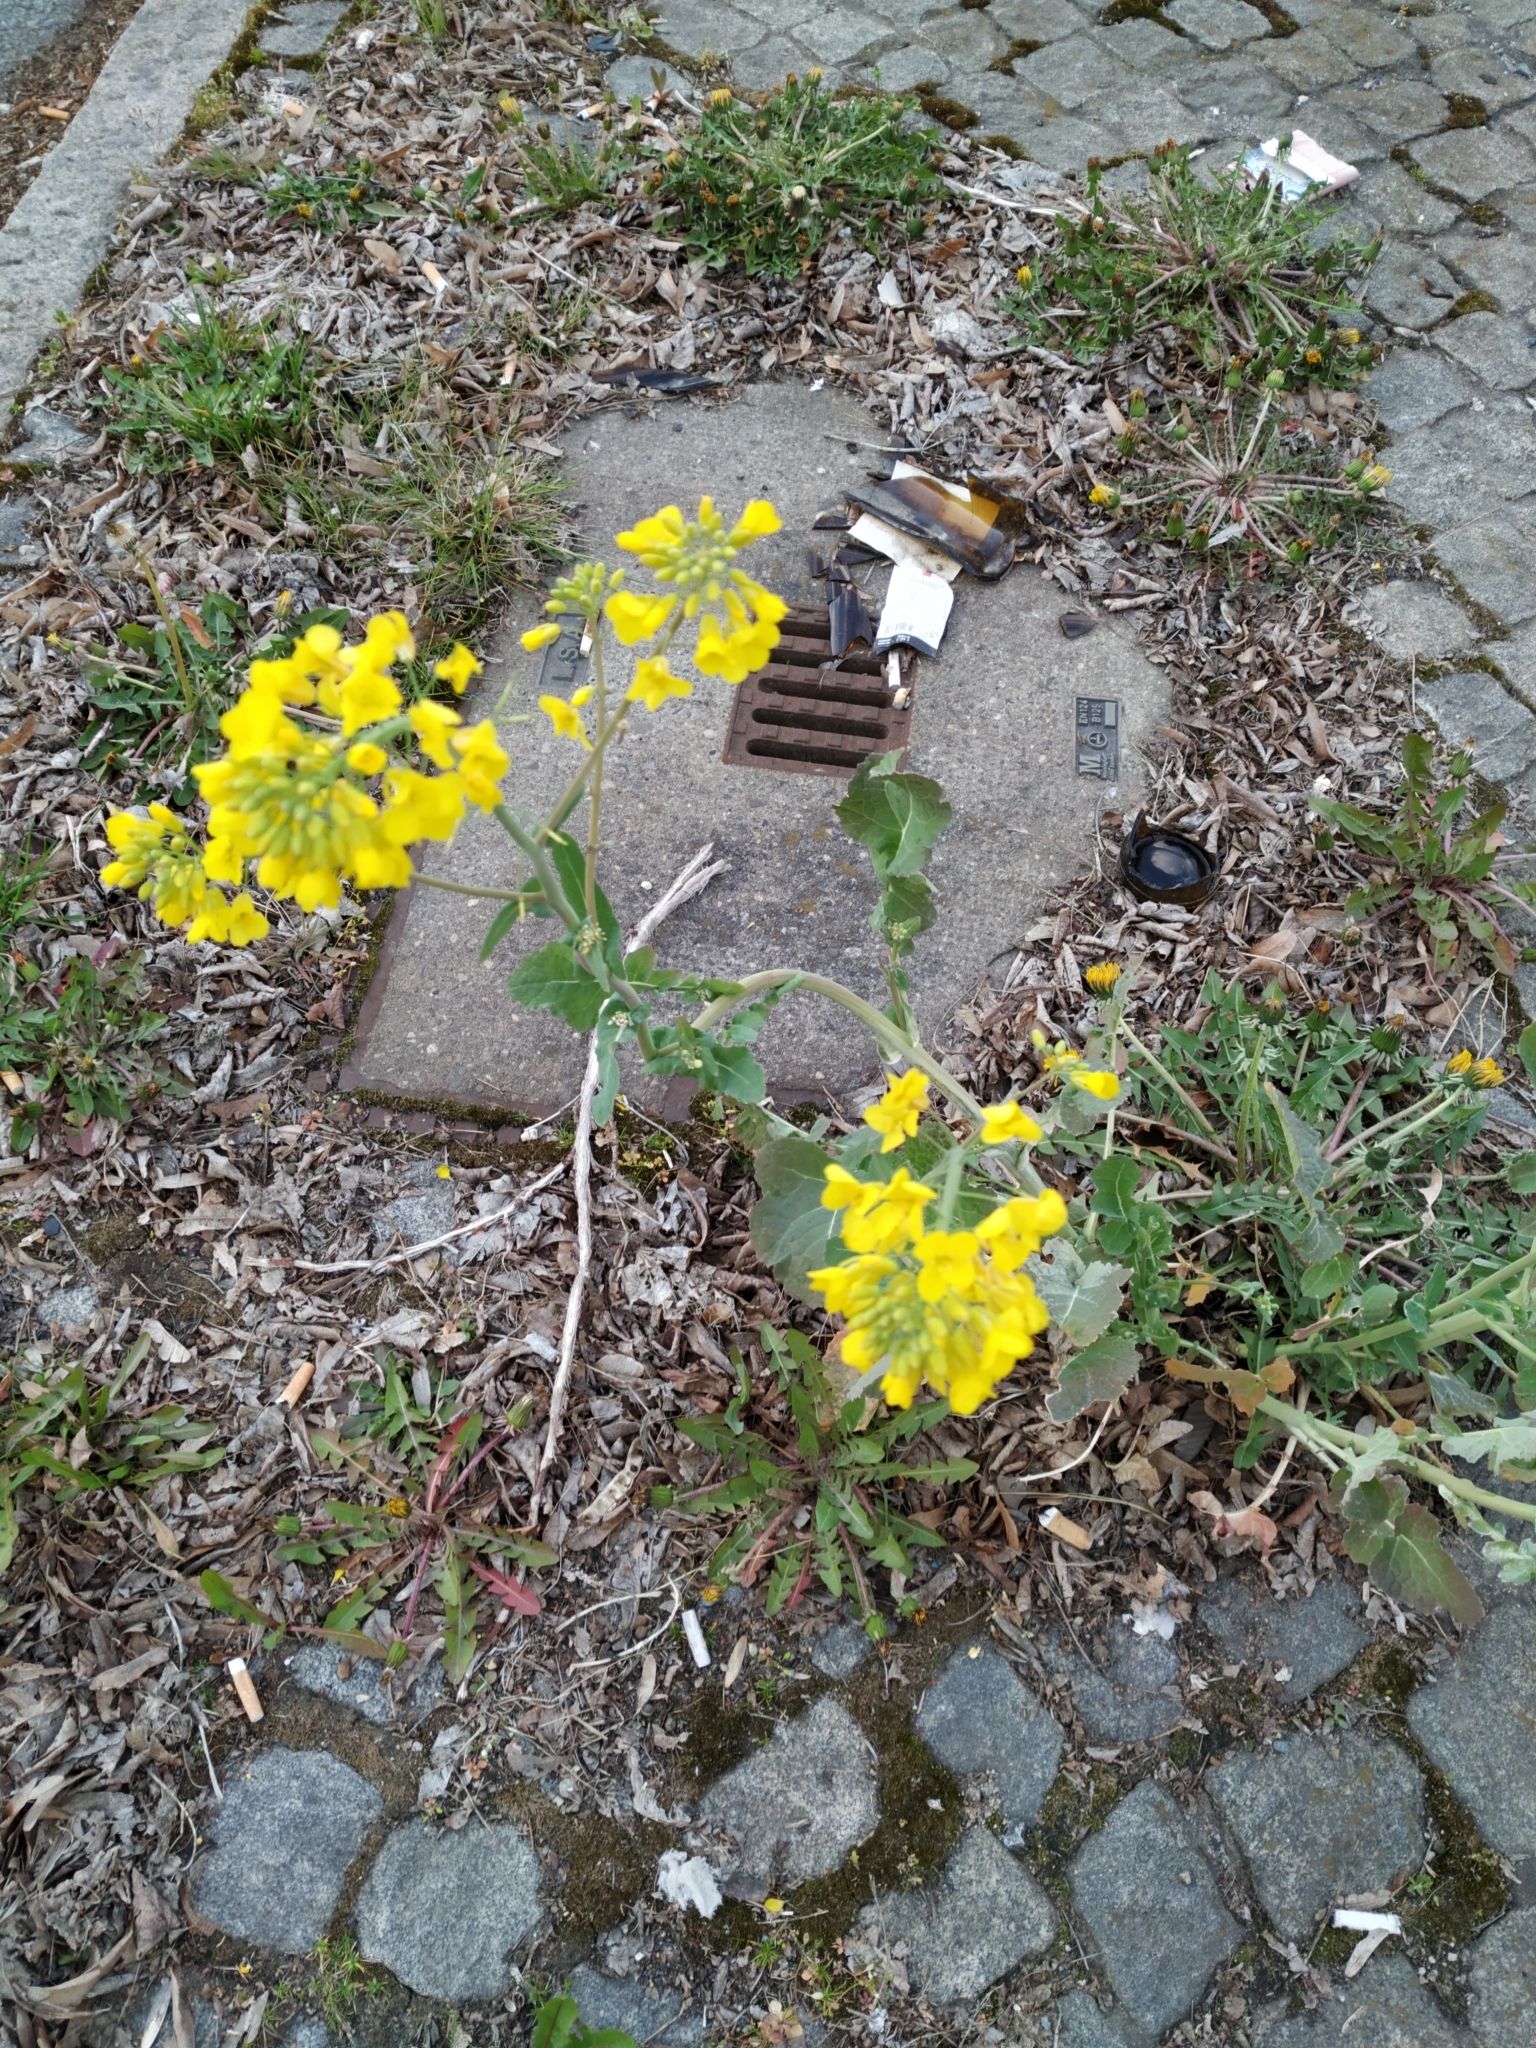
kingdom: Plantae
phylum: Tracheophyta
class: Magnoliopsida
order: Brassicales
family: Brassicaceae
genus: Brassica
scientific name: Brassica napus
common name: Rape
